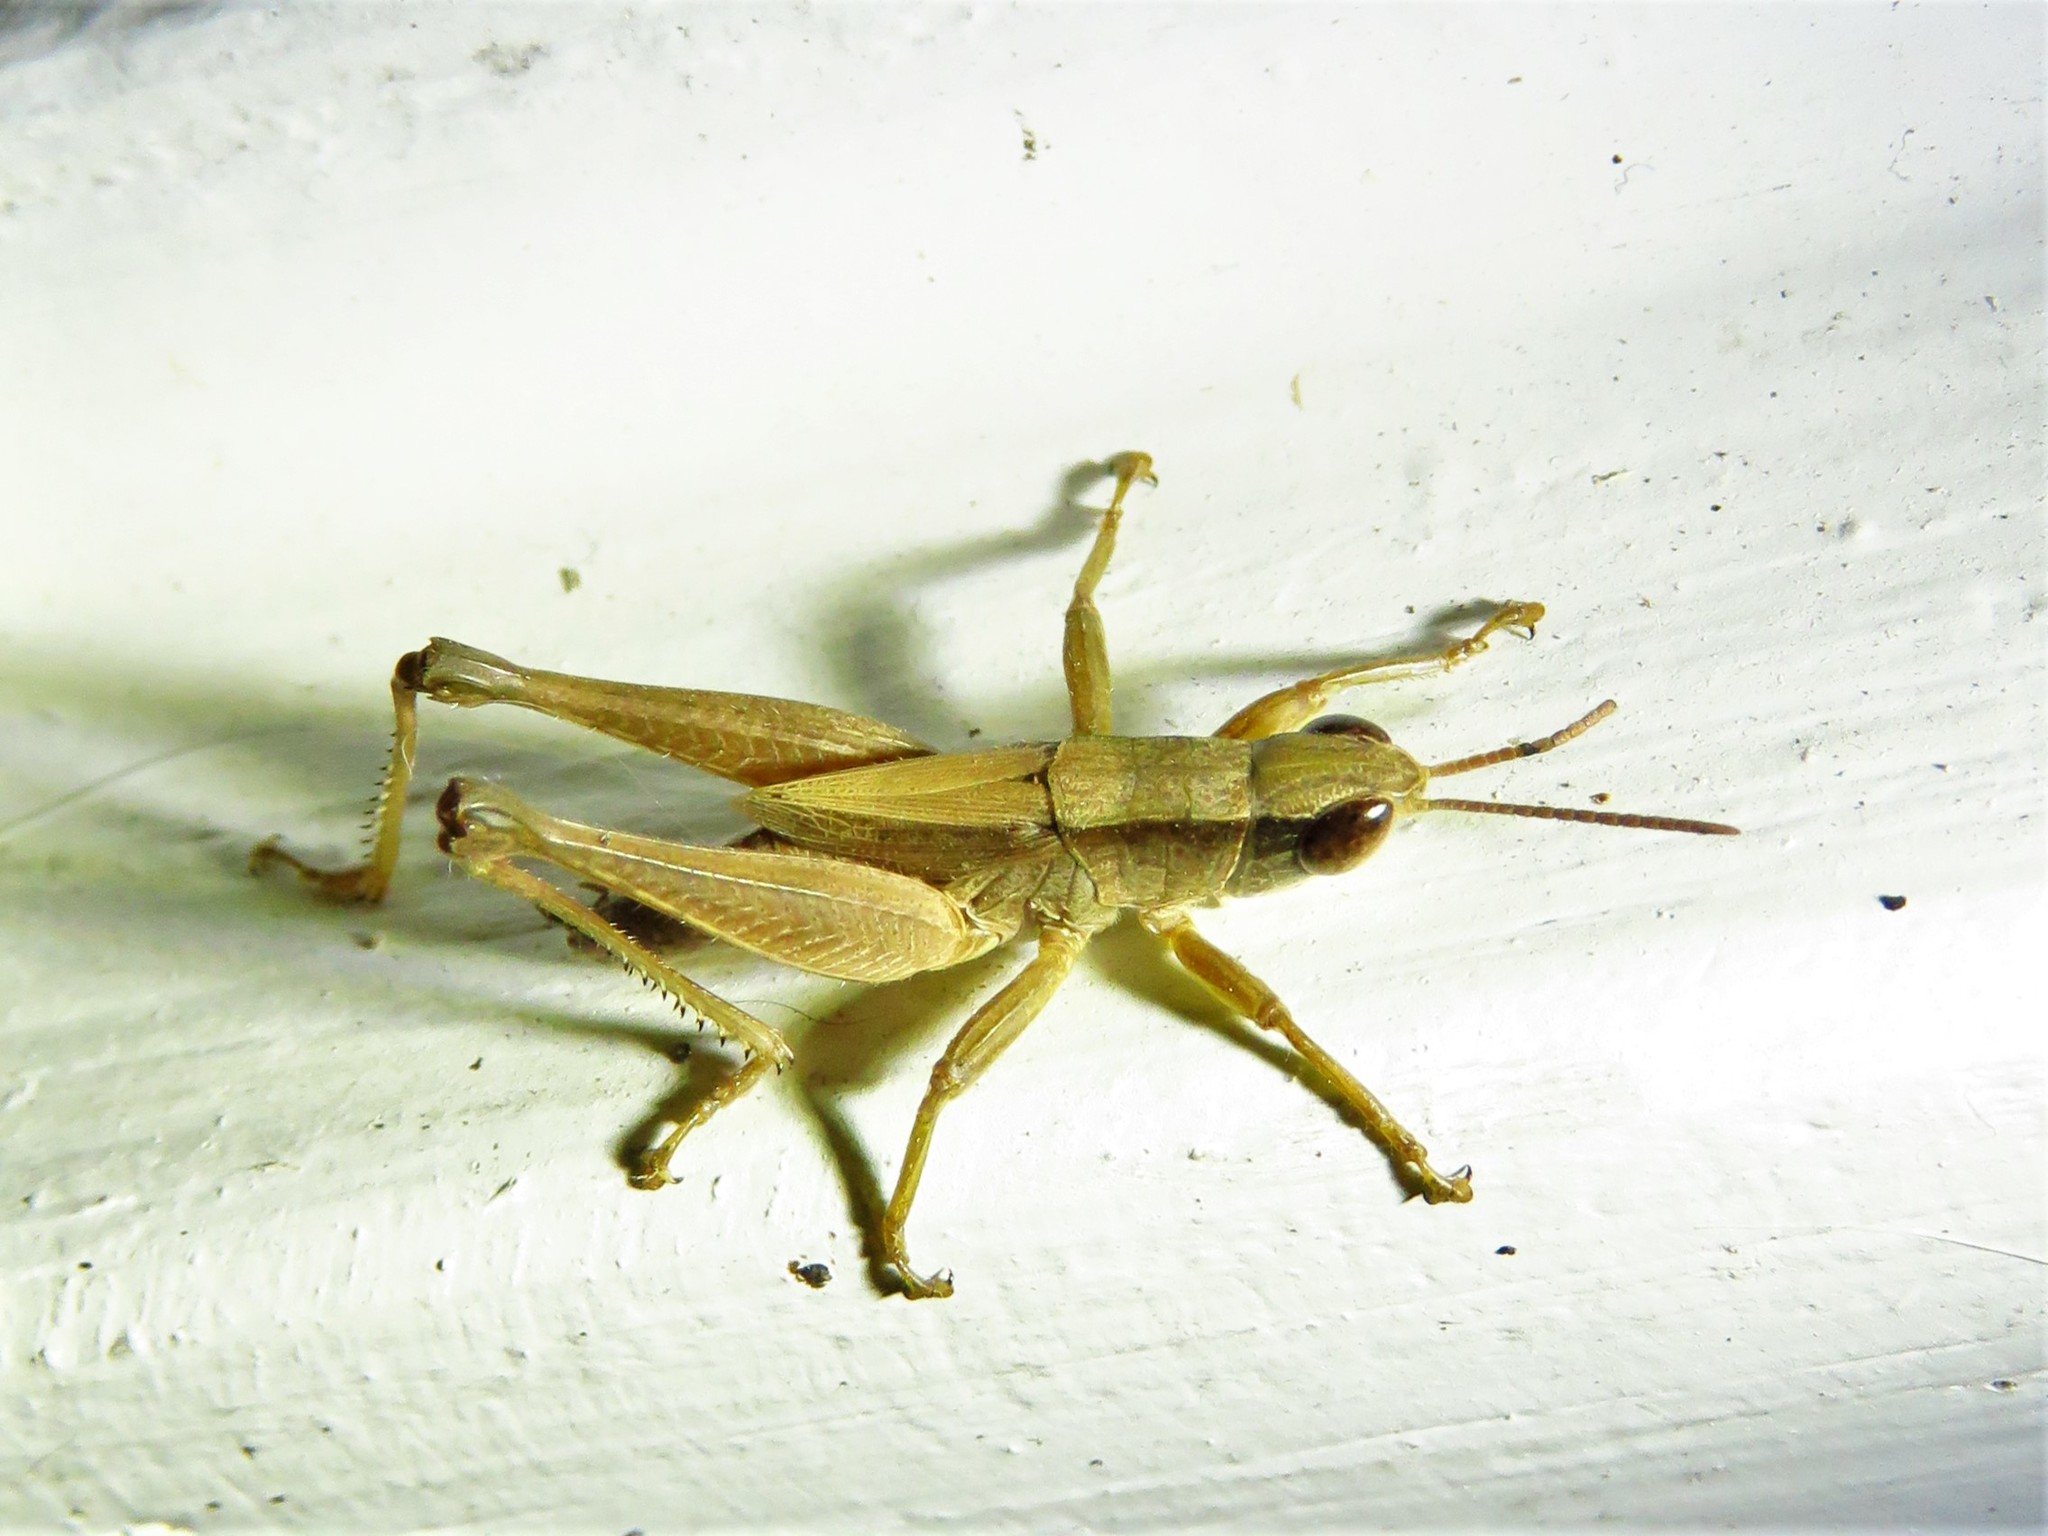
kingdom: Animalia
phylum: Arthropoda
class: Insecta
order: Orthoptera
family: Acrididae
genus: Dichromorpha
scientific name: Dichromorpha viridis
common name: Short-winged green grasshopper
